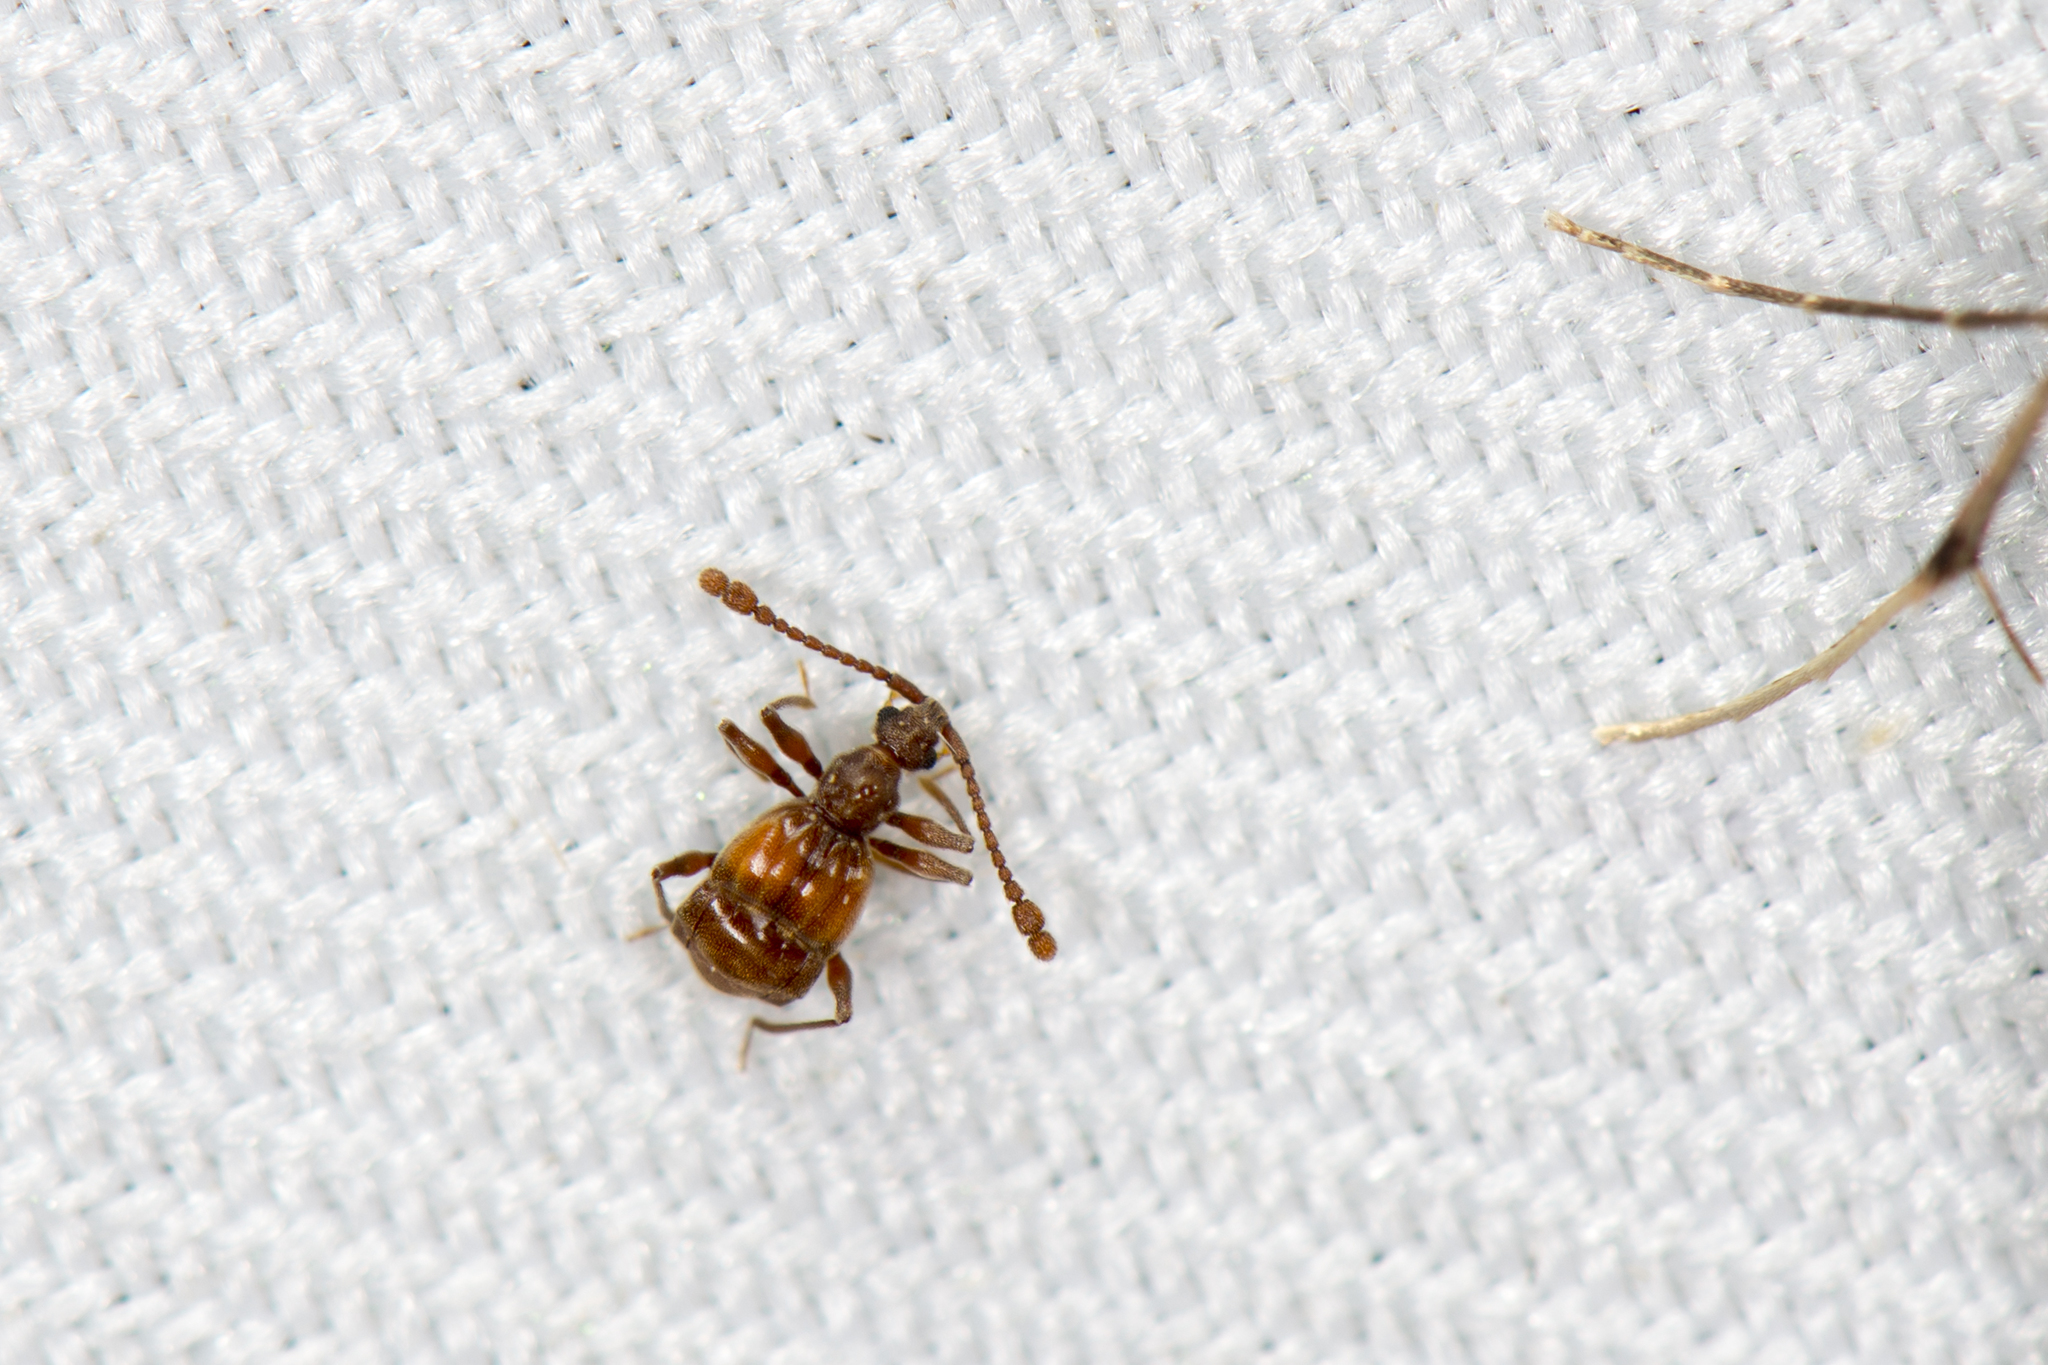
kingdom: Animalia
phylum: Arthropoda
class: Insecta
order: Coleoptera
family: Staphylinidae
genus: Taiwanophodes
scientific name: Taiwanophodes minor
